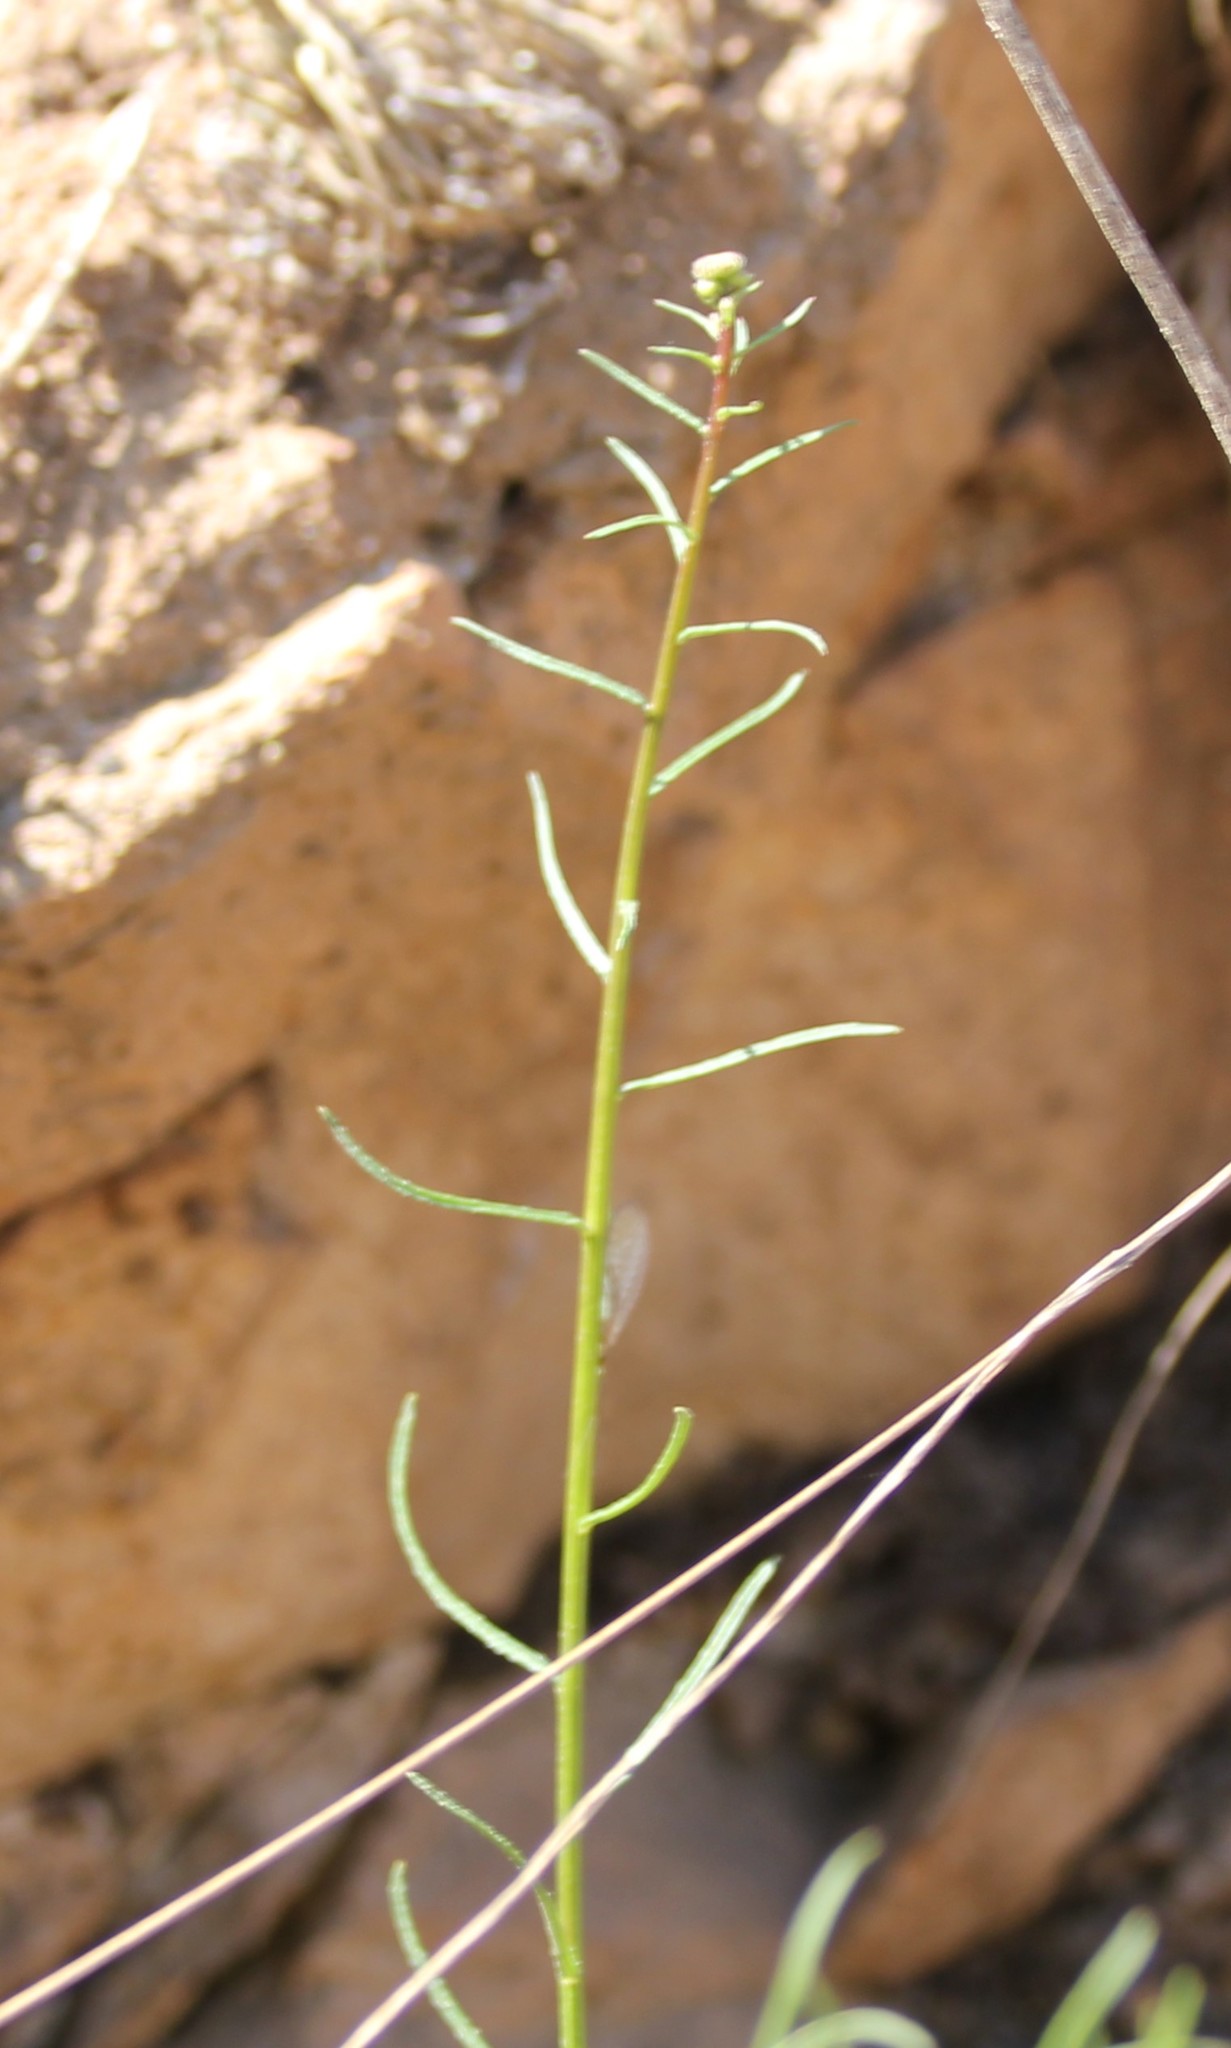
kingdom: Plantae
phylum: Tracheophyta
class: Magnoliopsida
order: Asterales
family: Asteraceae
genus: Erigeron
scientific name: Erigeron foliosus
